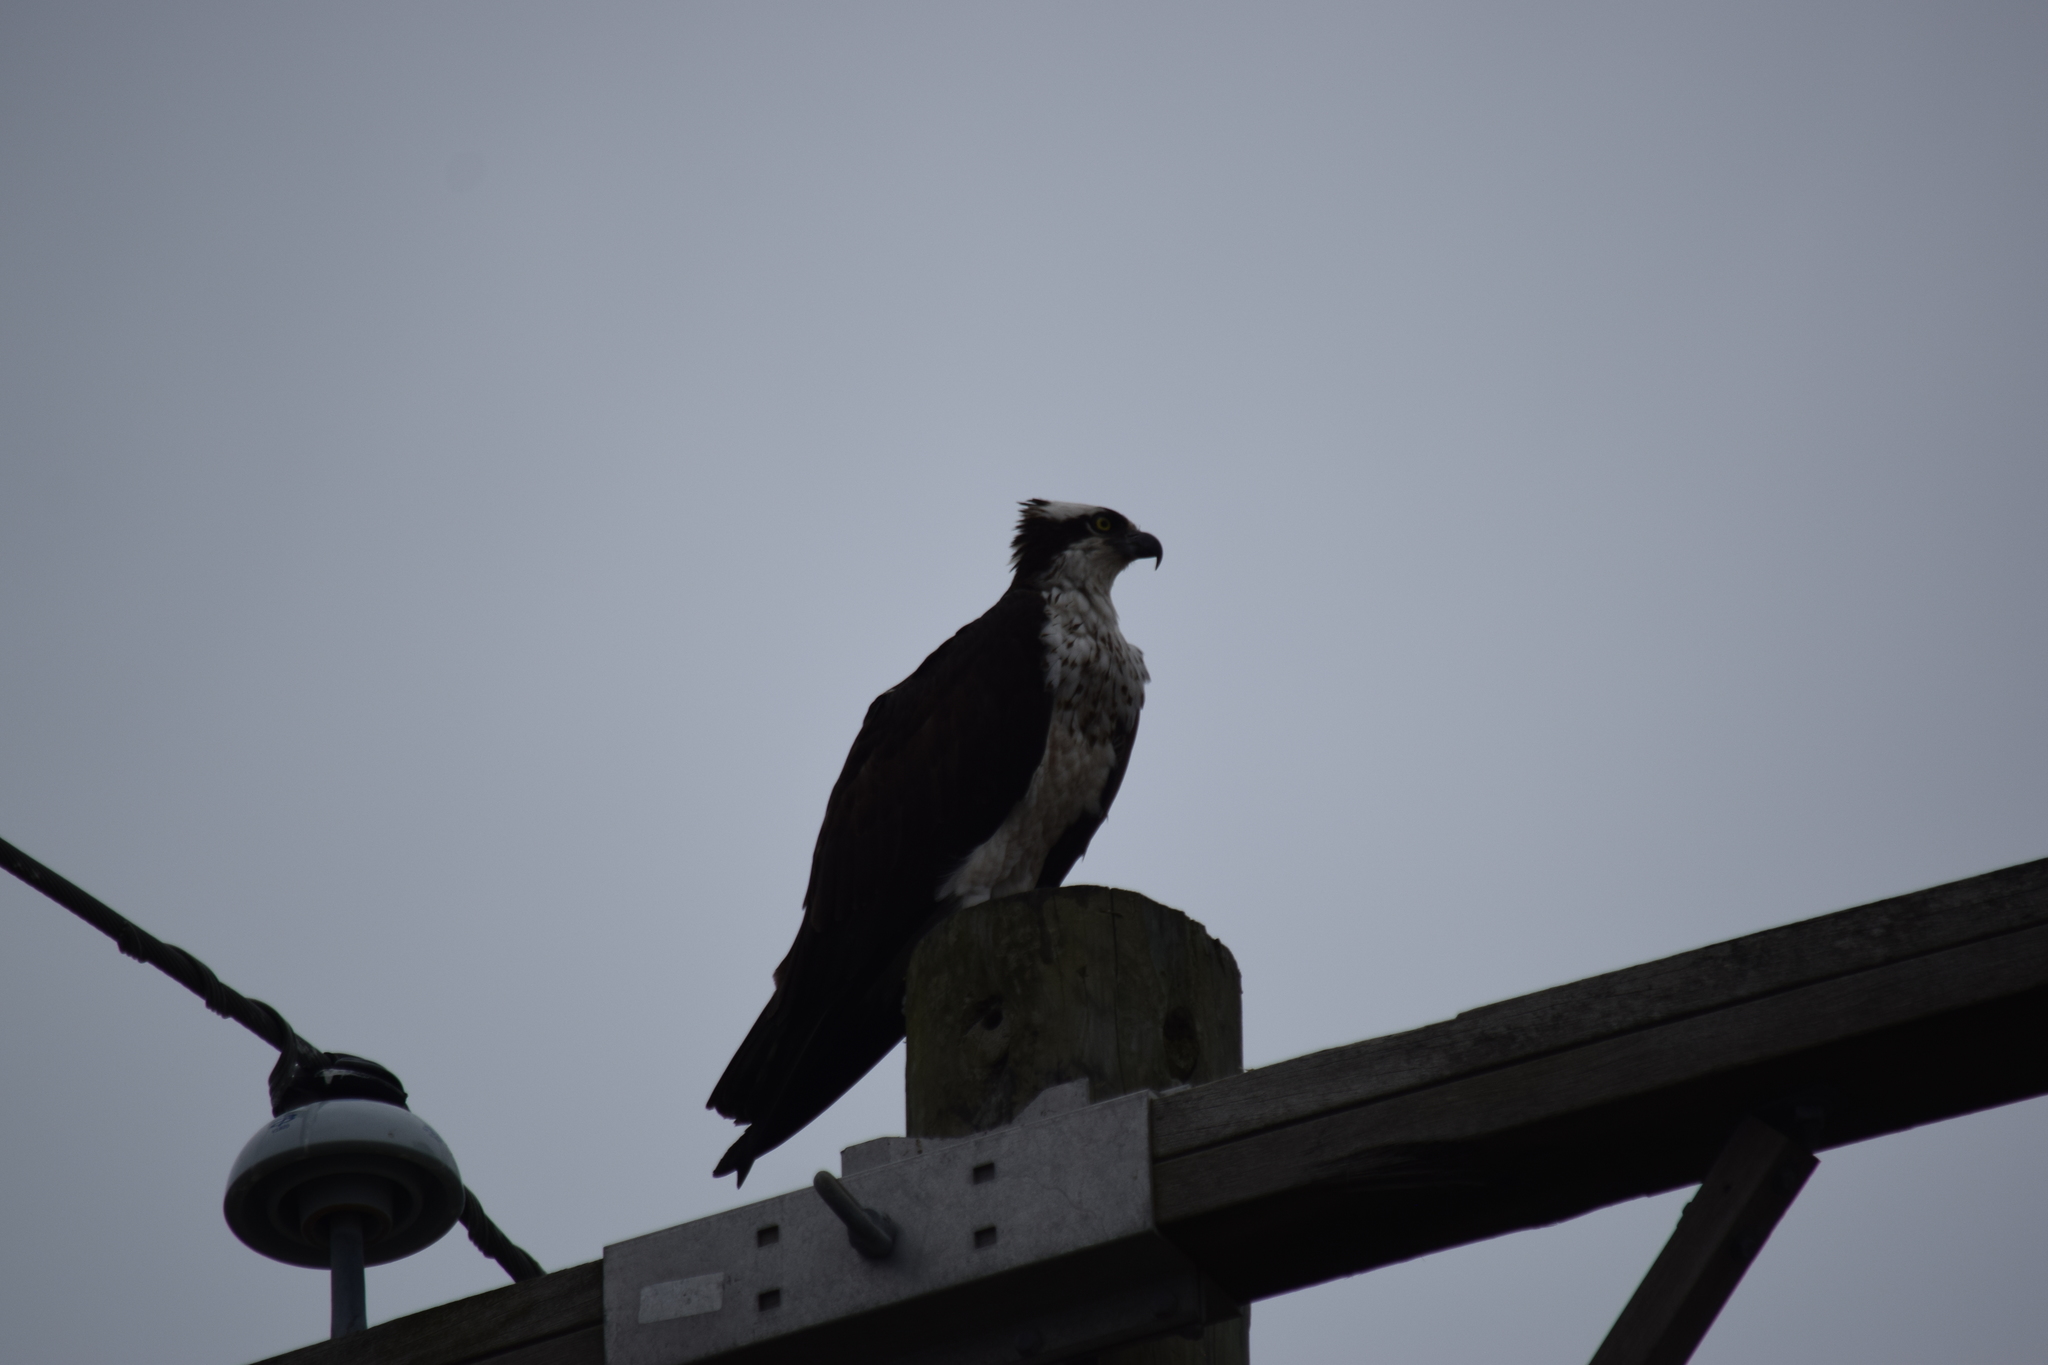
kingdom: Animalia
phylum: Chordata
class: Aves
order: Accipitriformes
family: Pandionidae
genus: Pandion
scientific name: Pandion haliaetus
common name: Osprey
